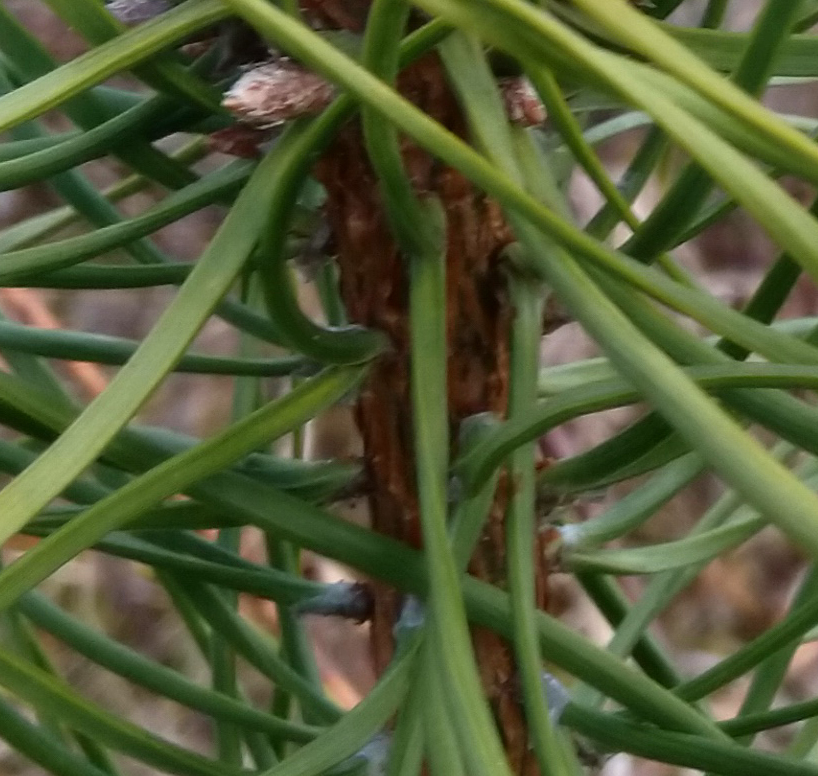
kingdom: Plantae
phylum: Tracheophyta
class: Pinopsida
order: Pinales
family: Pinaceae
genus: Pinus
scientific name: Pinus sylvestris
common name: Scots pine
